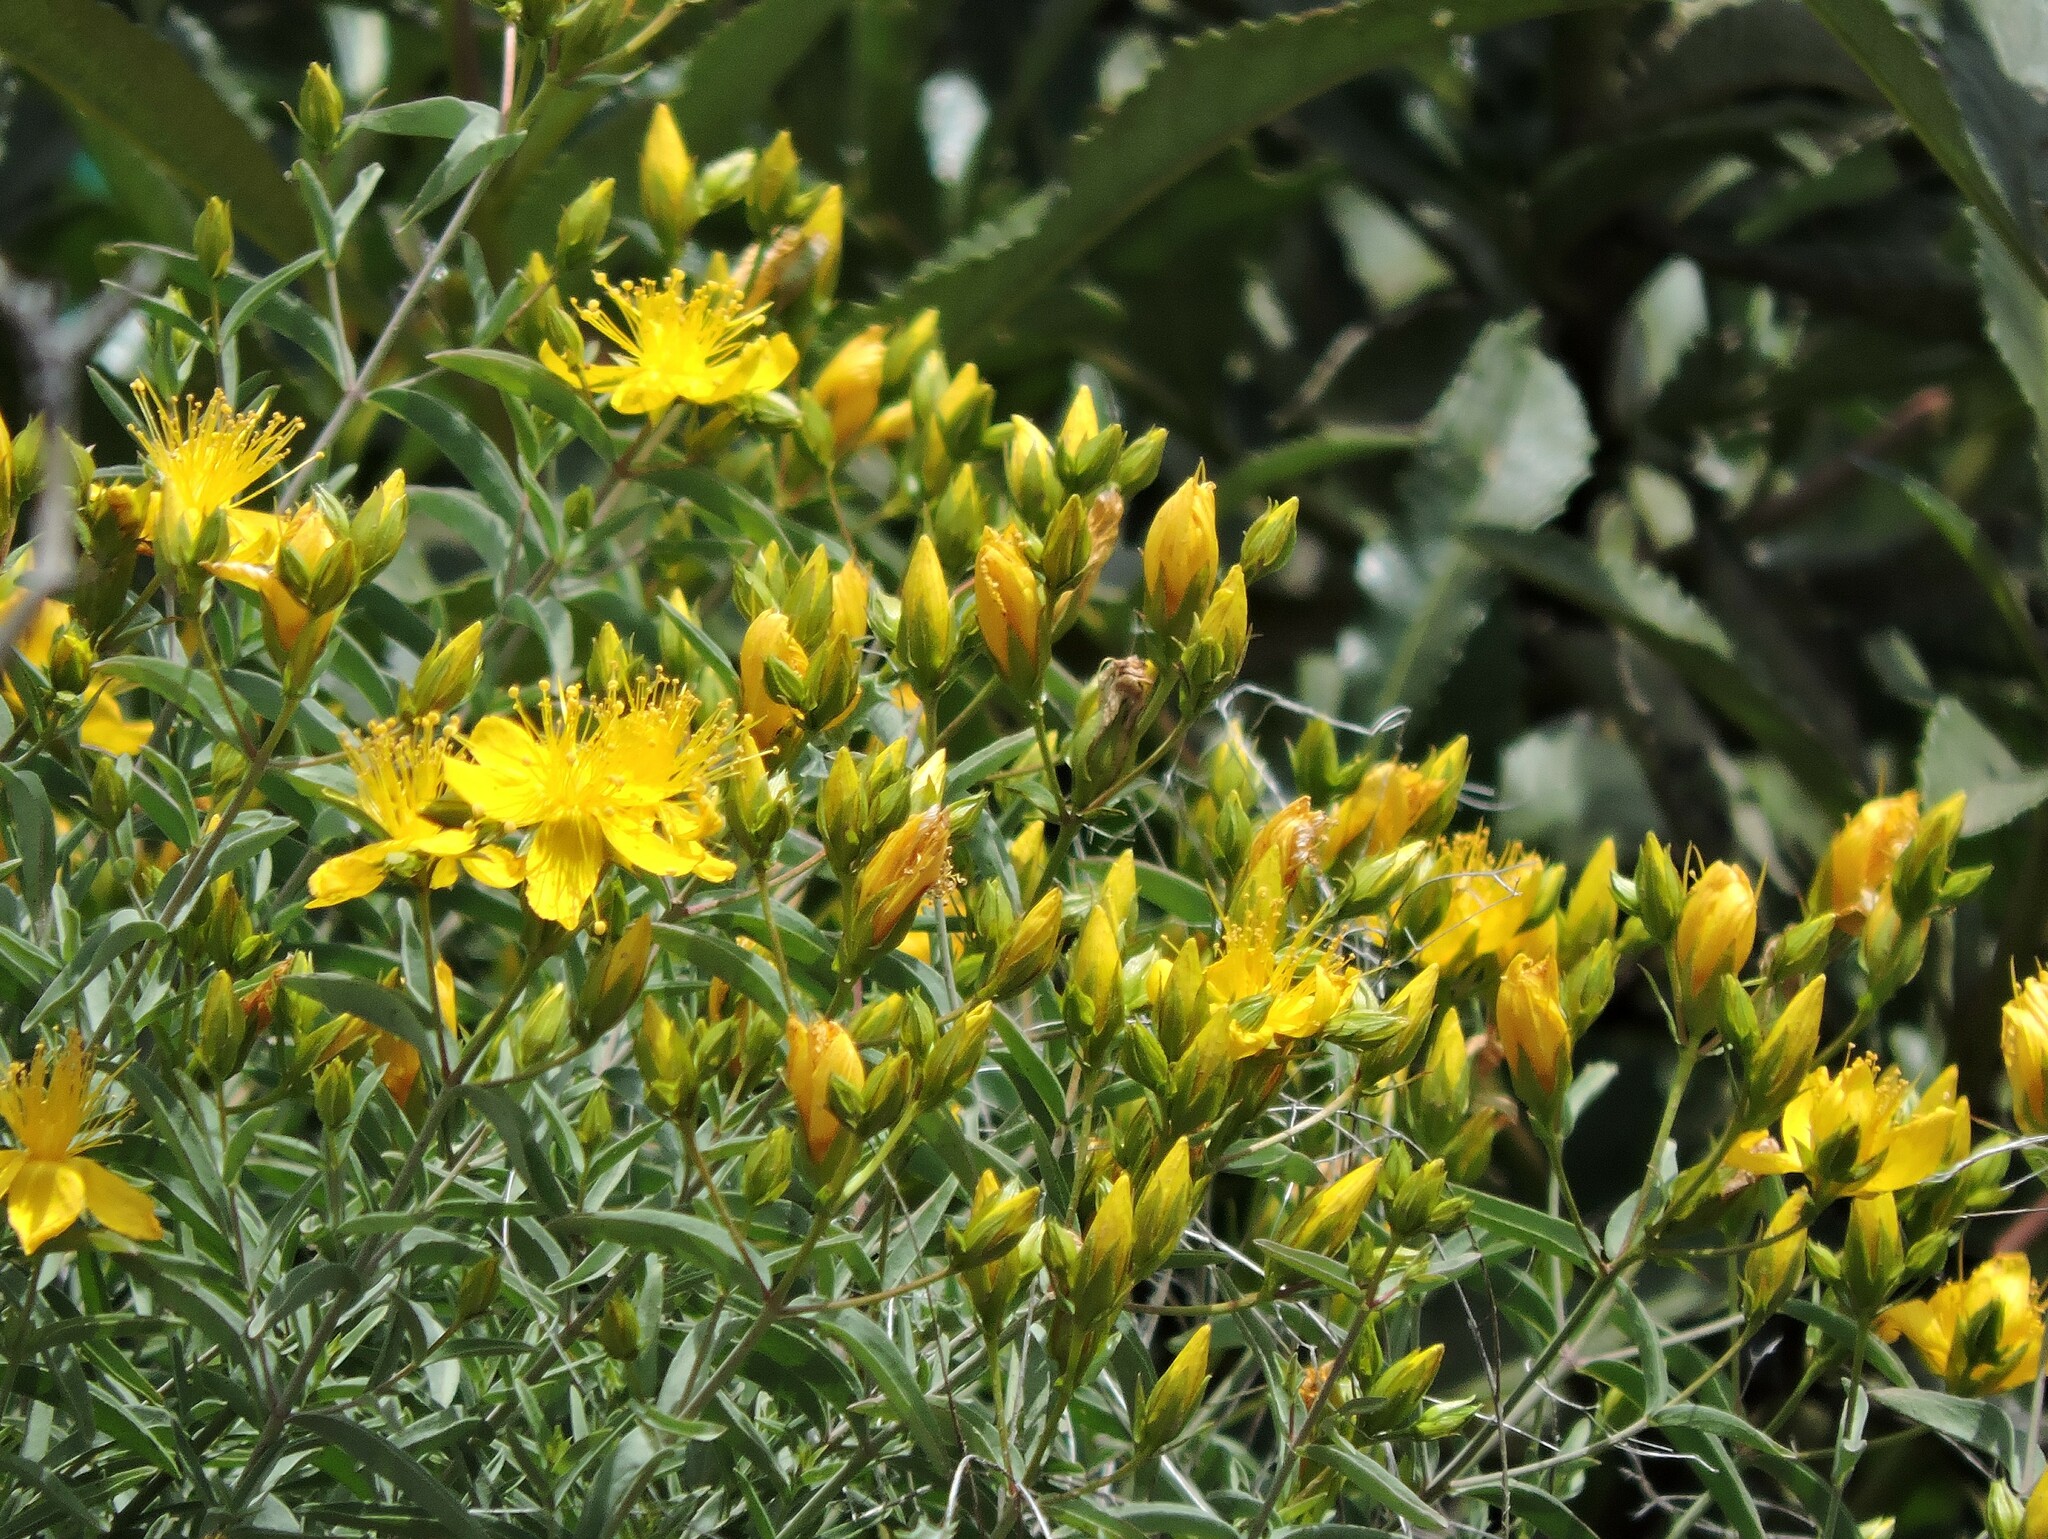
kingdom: Plantae
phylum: Tracheophyta
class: Magnoliopsida
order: Malpighiales
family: Hypericaceae
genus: Hypericum
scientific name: Hypericum concinnum
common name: Gold-wire
